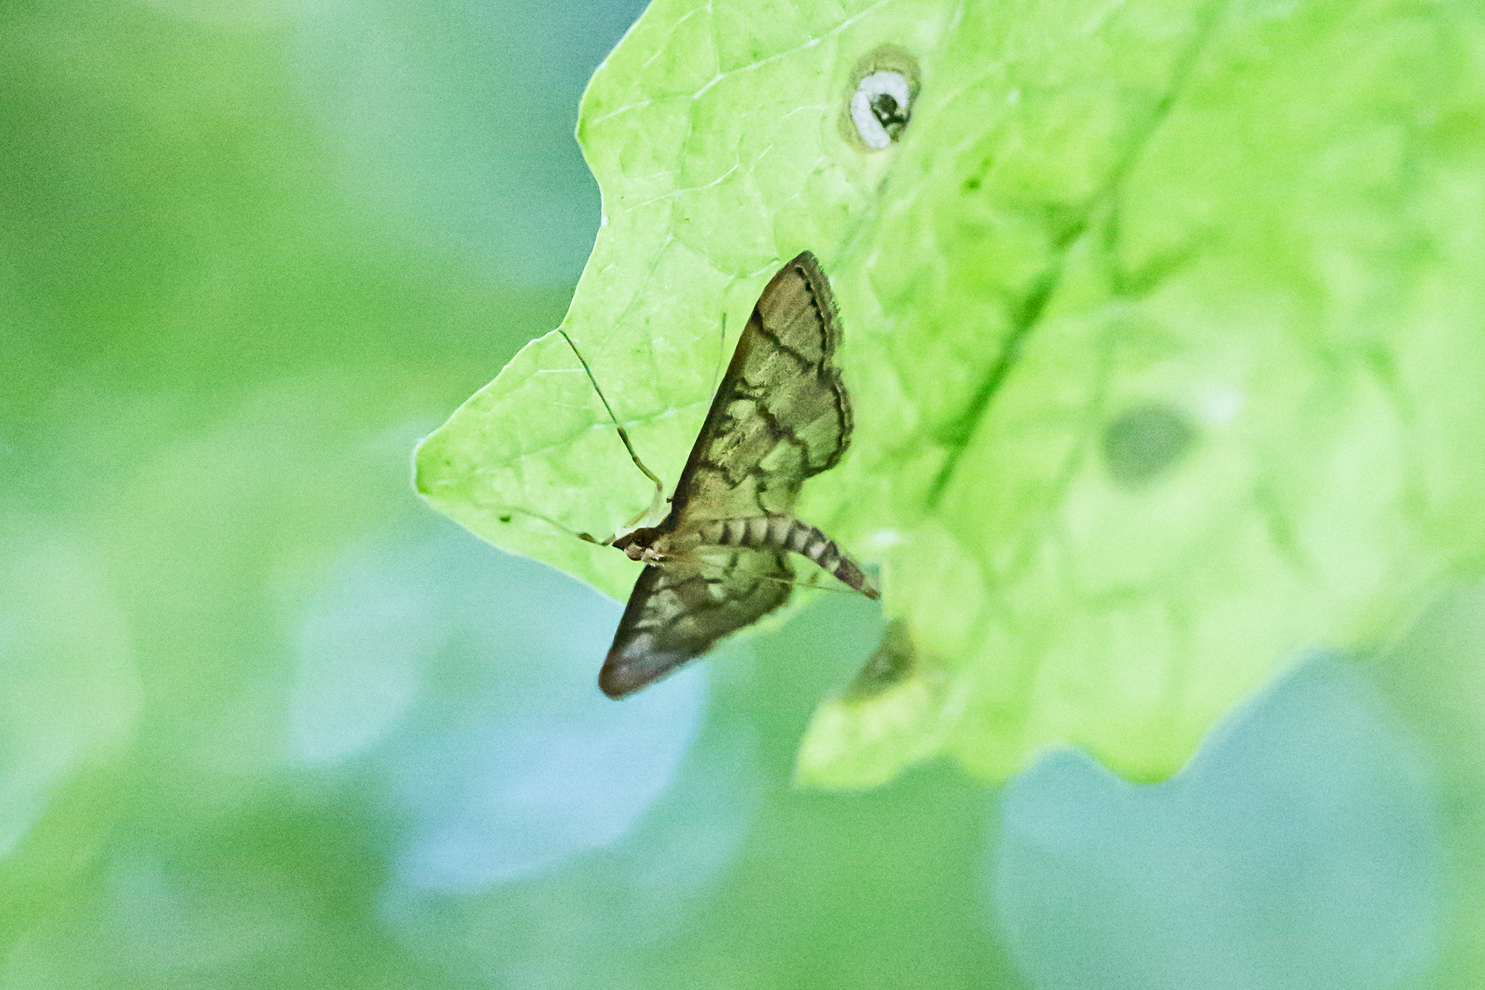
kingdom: Animalia
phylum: Arthropoda
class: Insecta
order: Lepidoptera
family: Crambidae
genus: Lamprosema
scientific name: Lamprosema Blepharomastix ranalis
